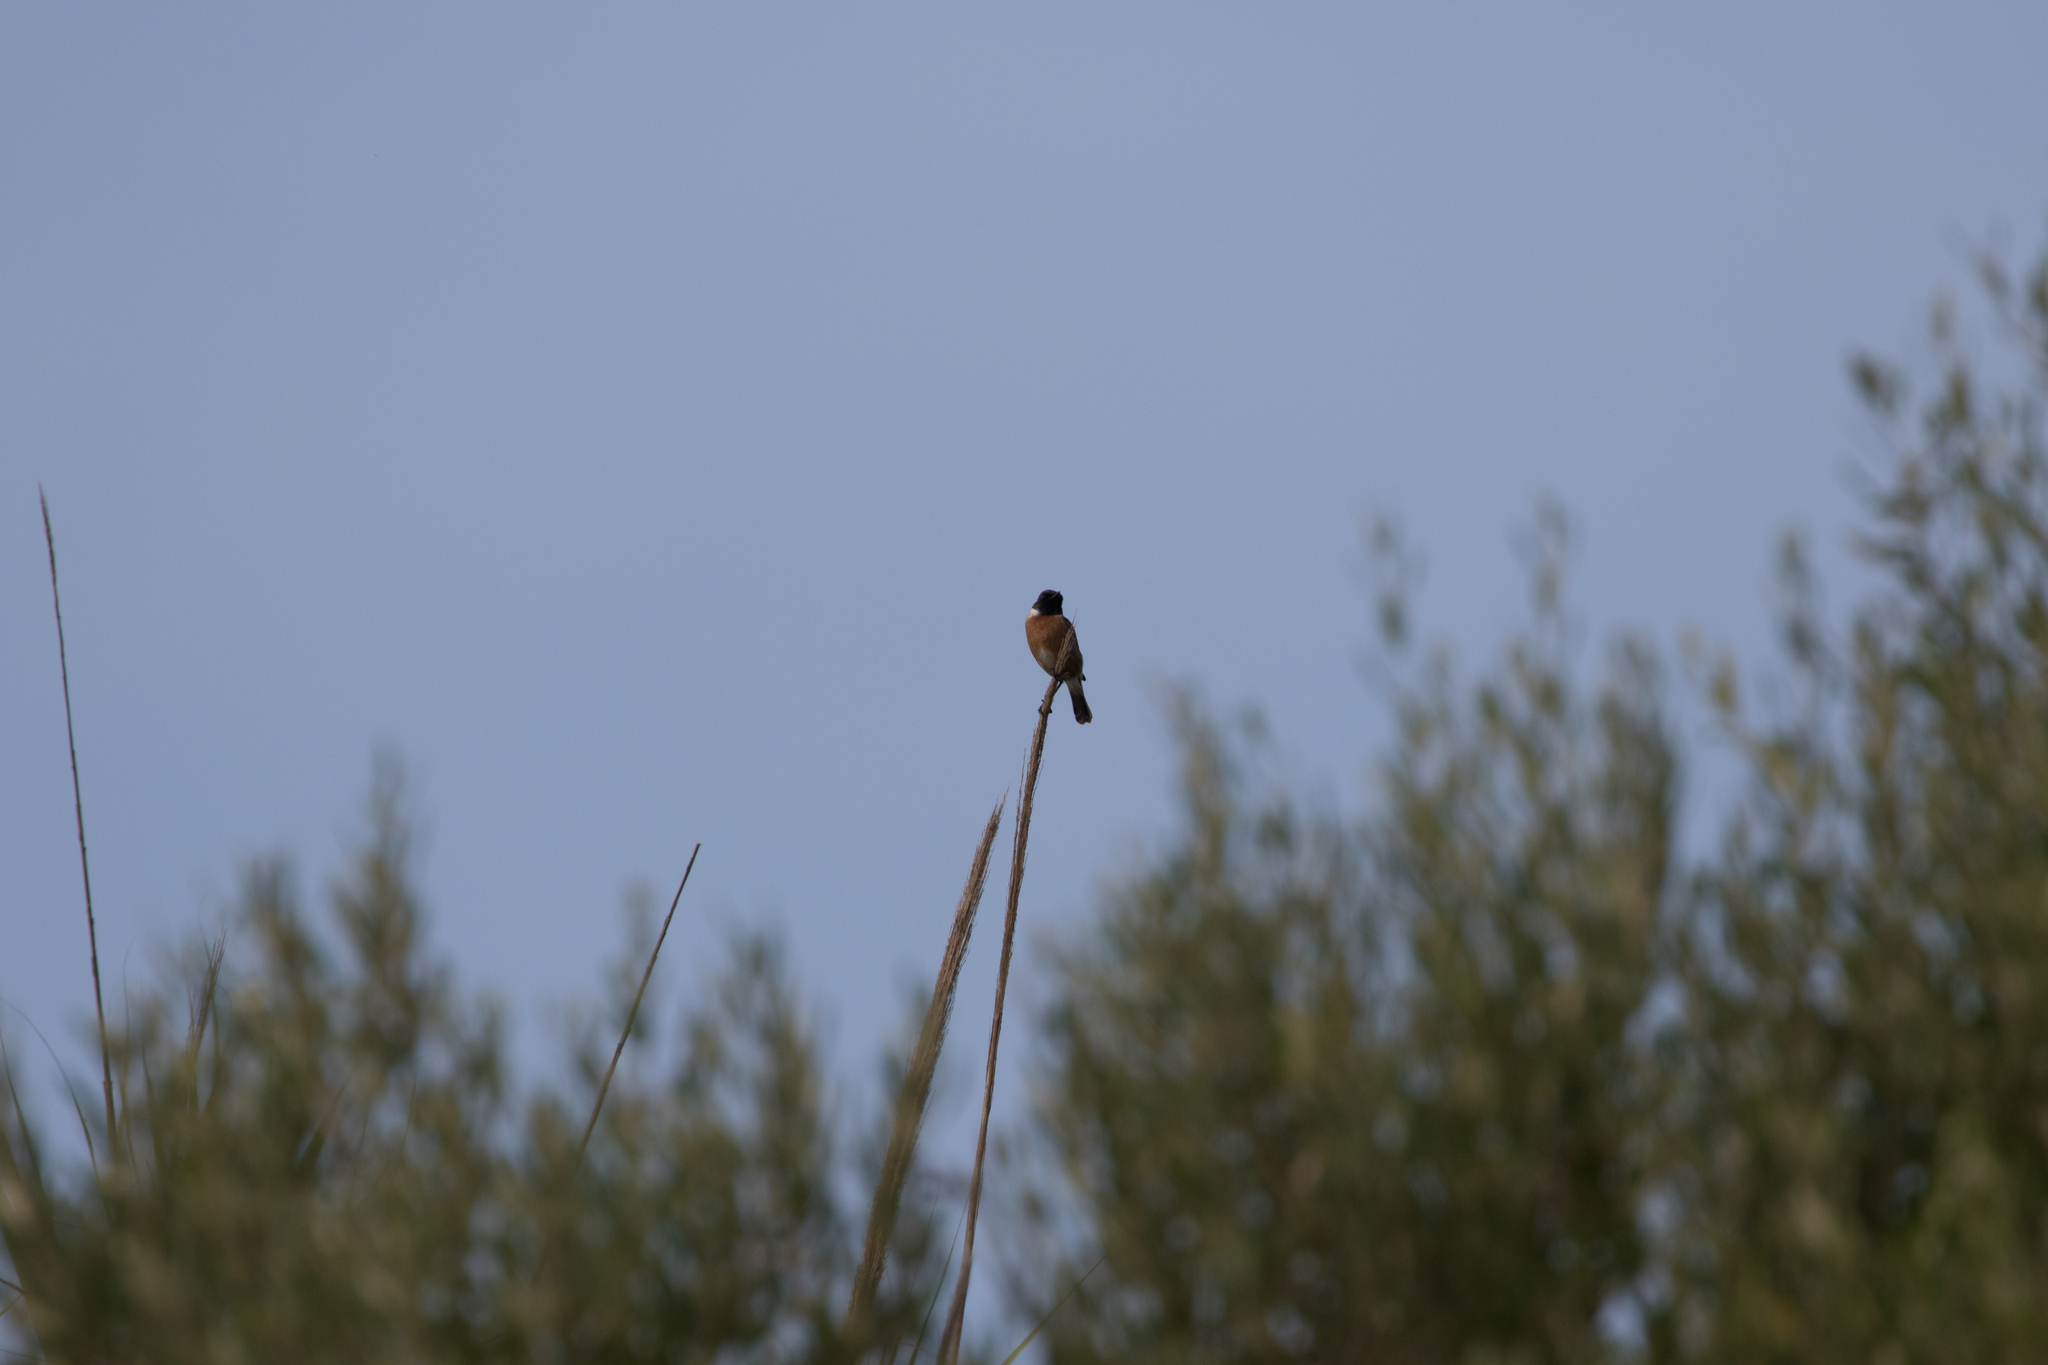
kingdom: Animalia
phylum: Chordata
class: Aves
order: Passeriformes
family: Muscicapidae
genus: Saxicola
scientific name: Saxicola rubicola
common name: European stonechat
